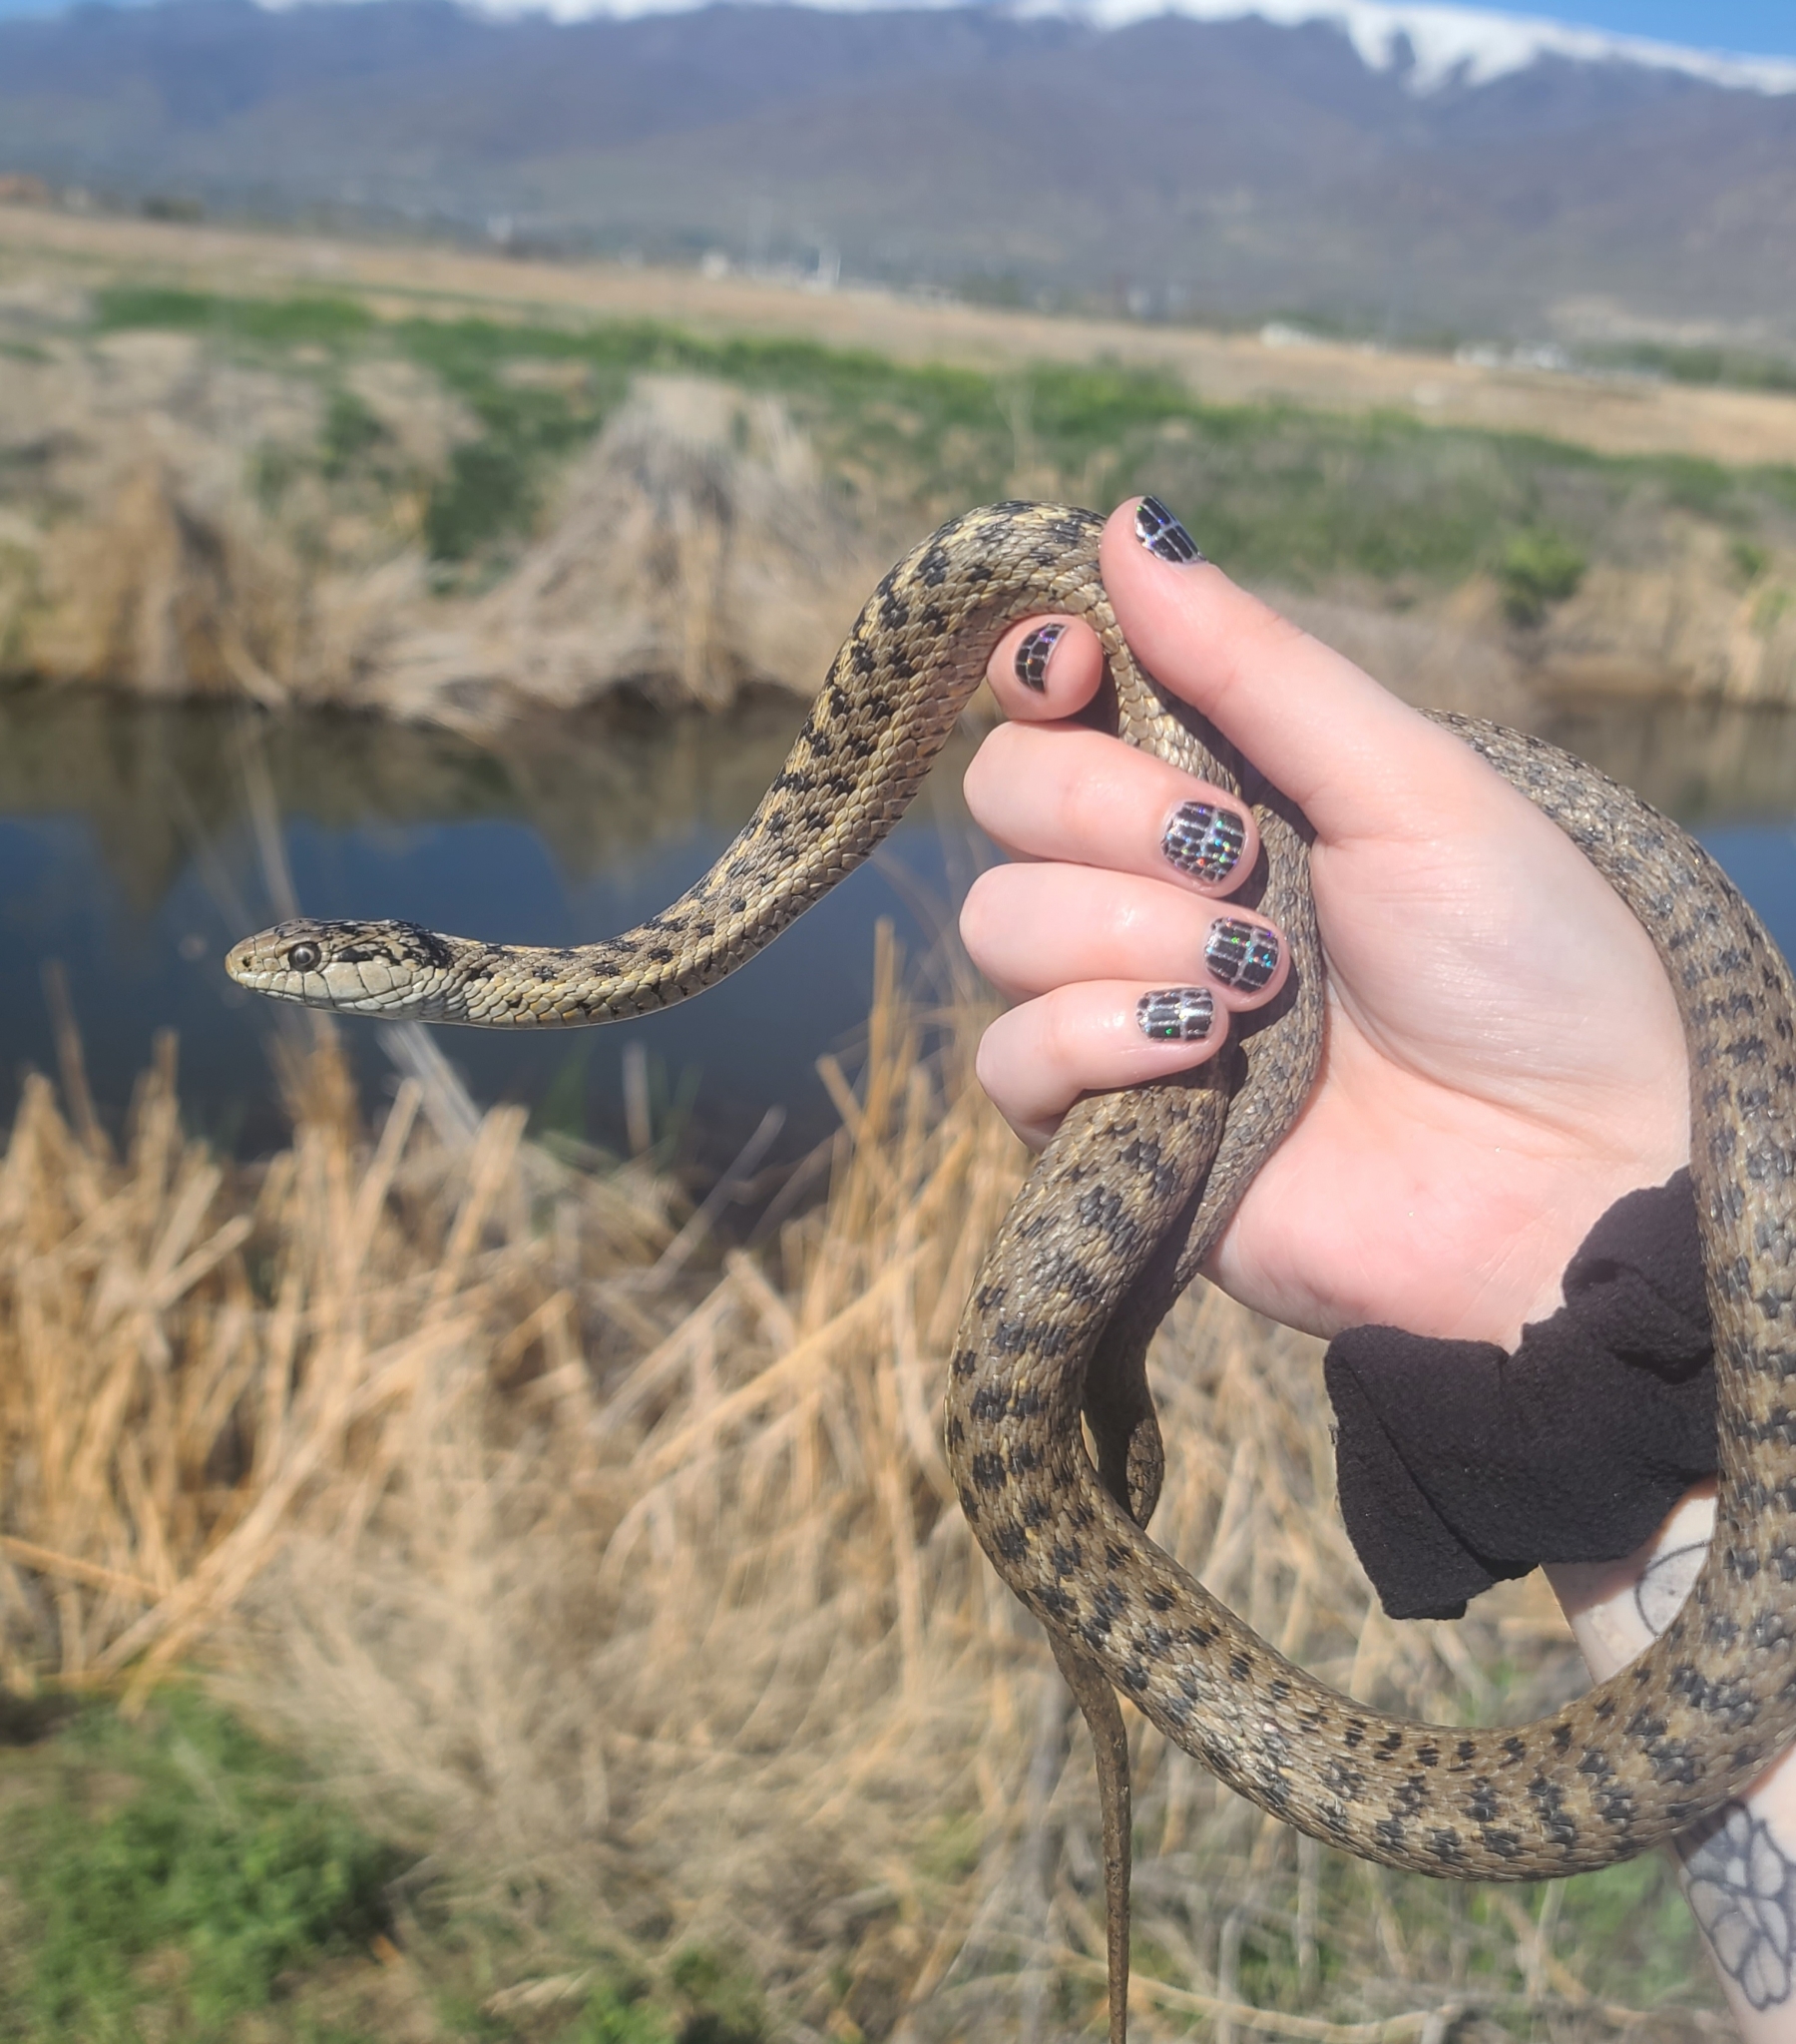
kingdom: Animalia
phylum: Chordata
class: Squamata
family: Colubridae
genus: Thamnophis
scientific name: Thamnophis elegans
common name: Western terrestrial garter snake
